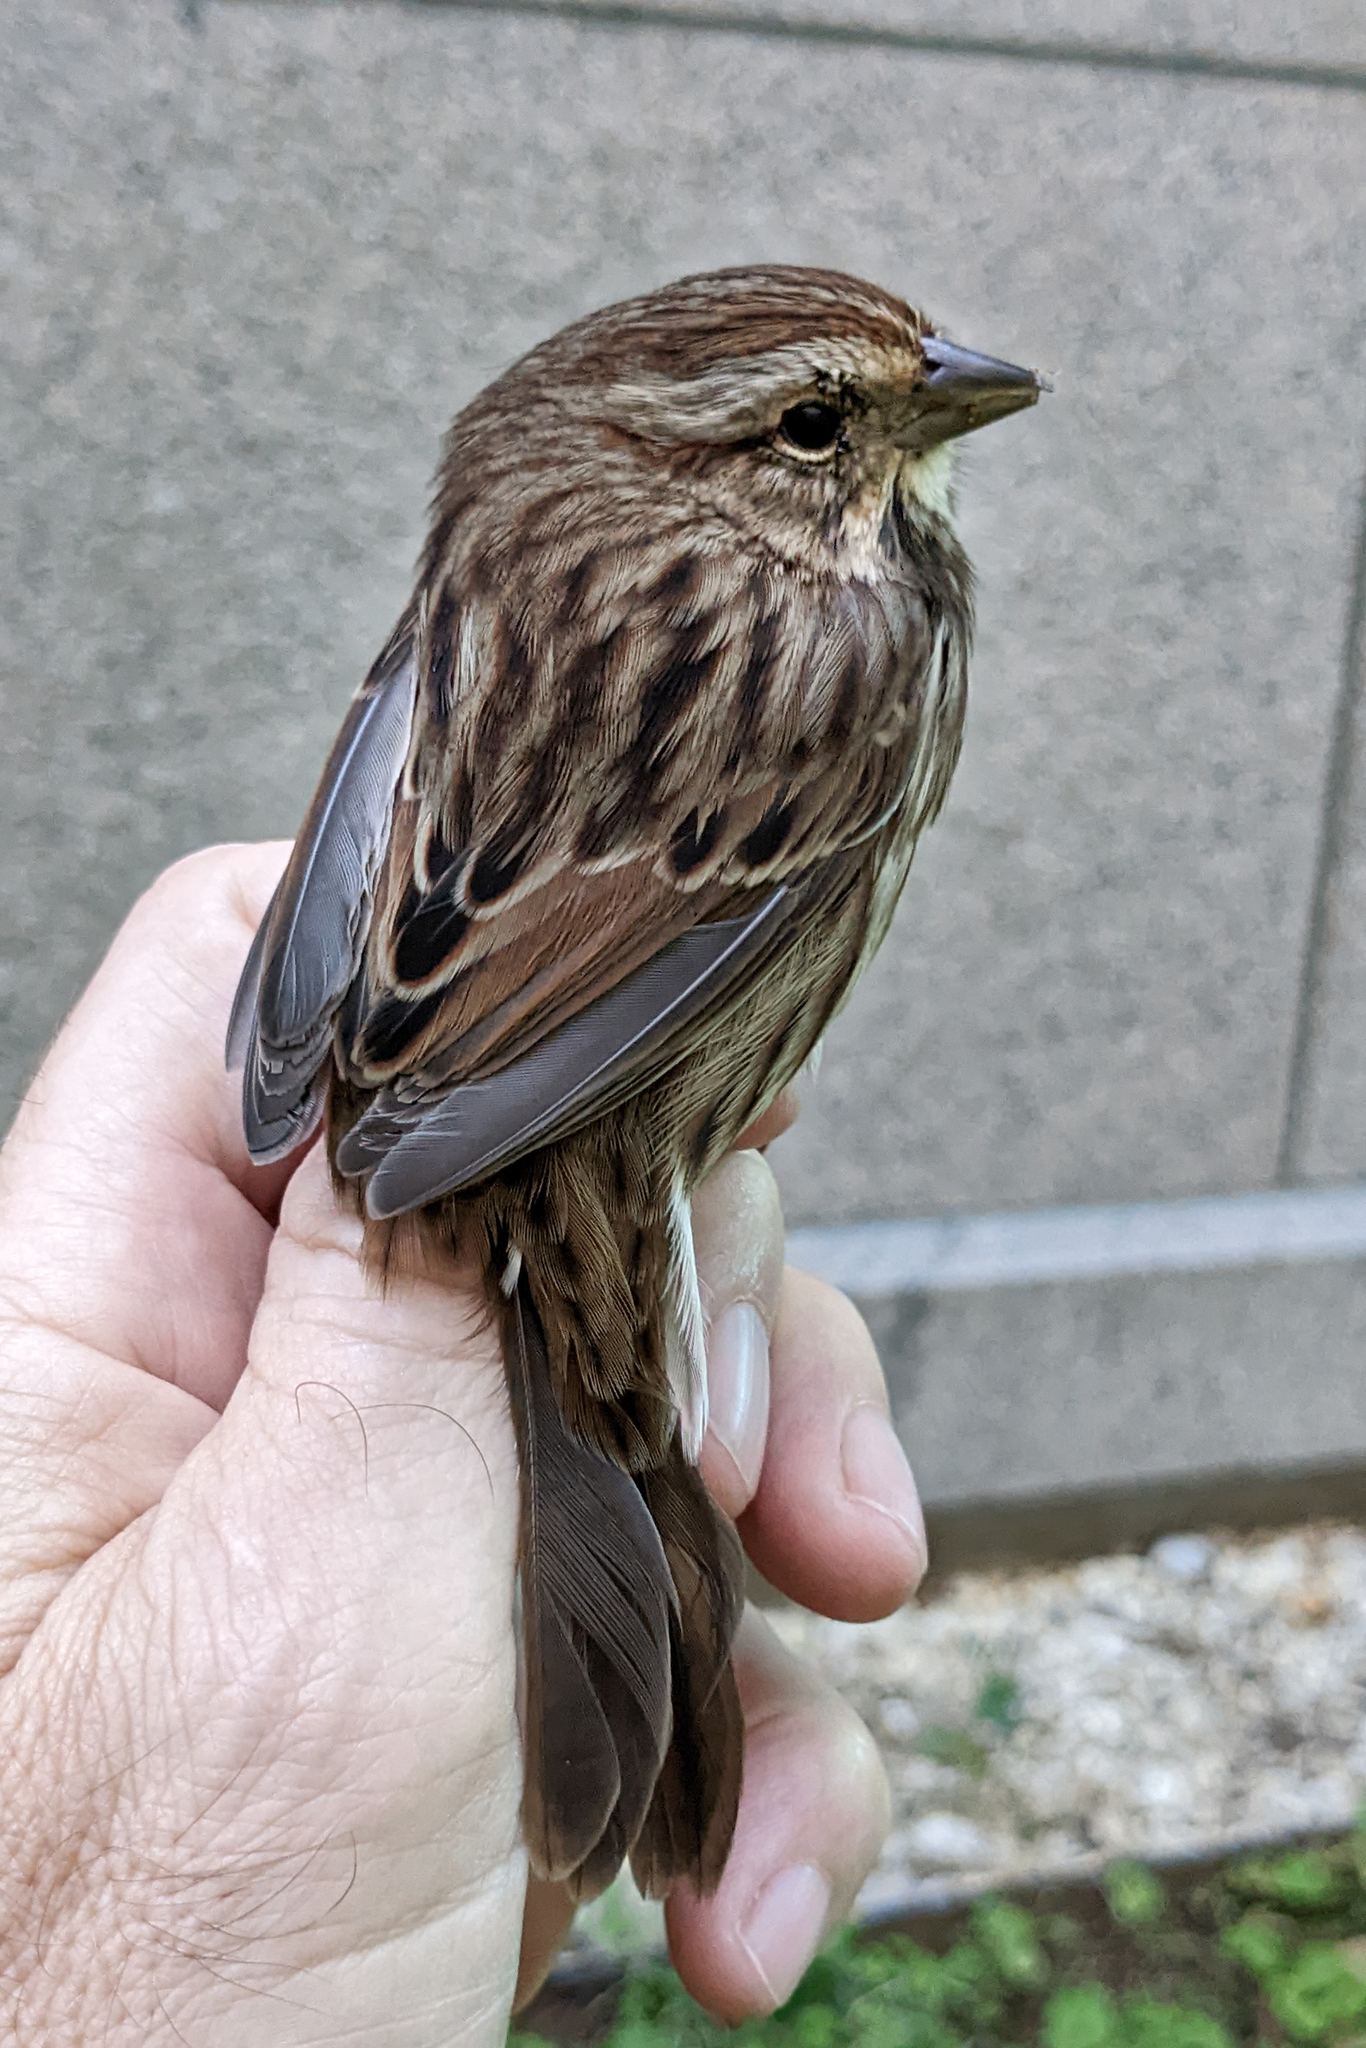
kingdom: Animalia
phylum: Chordata
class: Aves
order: Passeriformes
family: Passerellidae
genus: Melospiza
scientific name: Melospiza melodia
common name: Song sparrow
